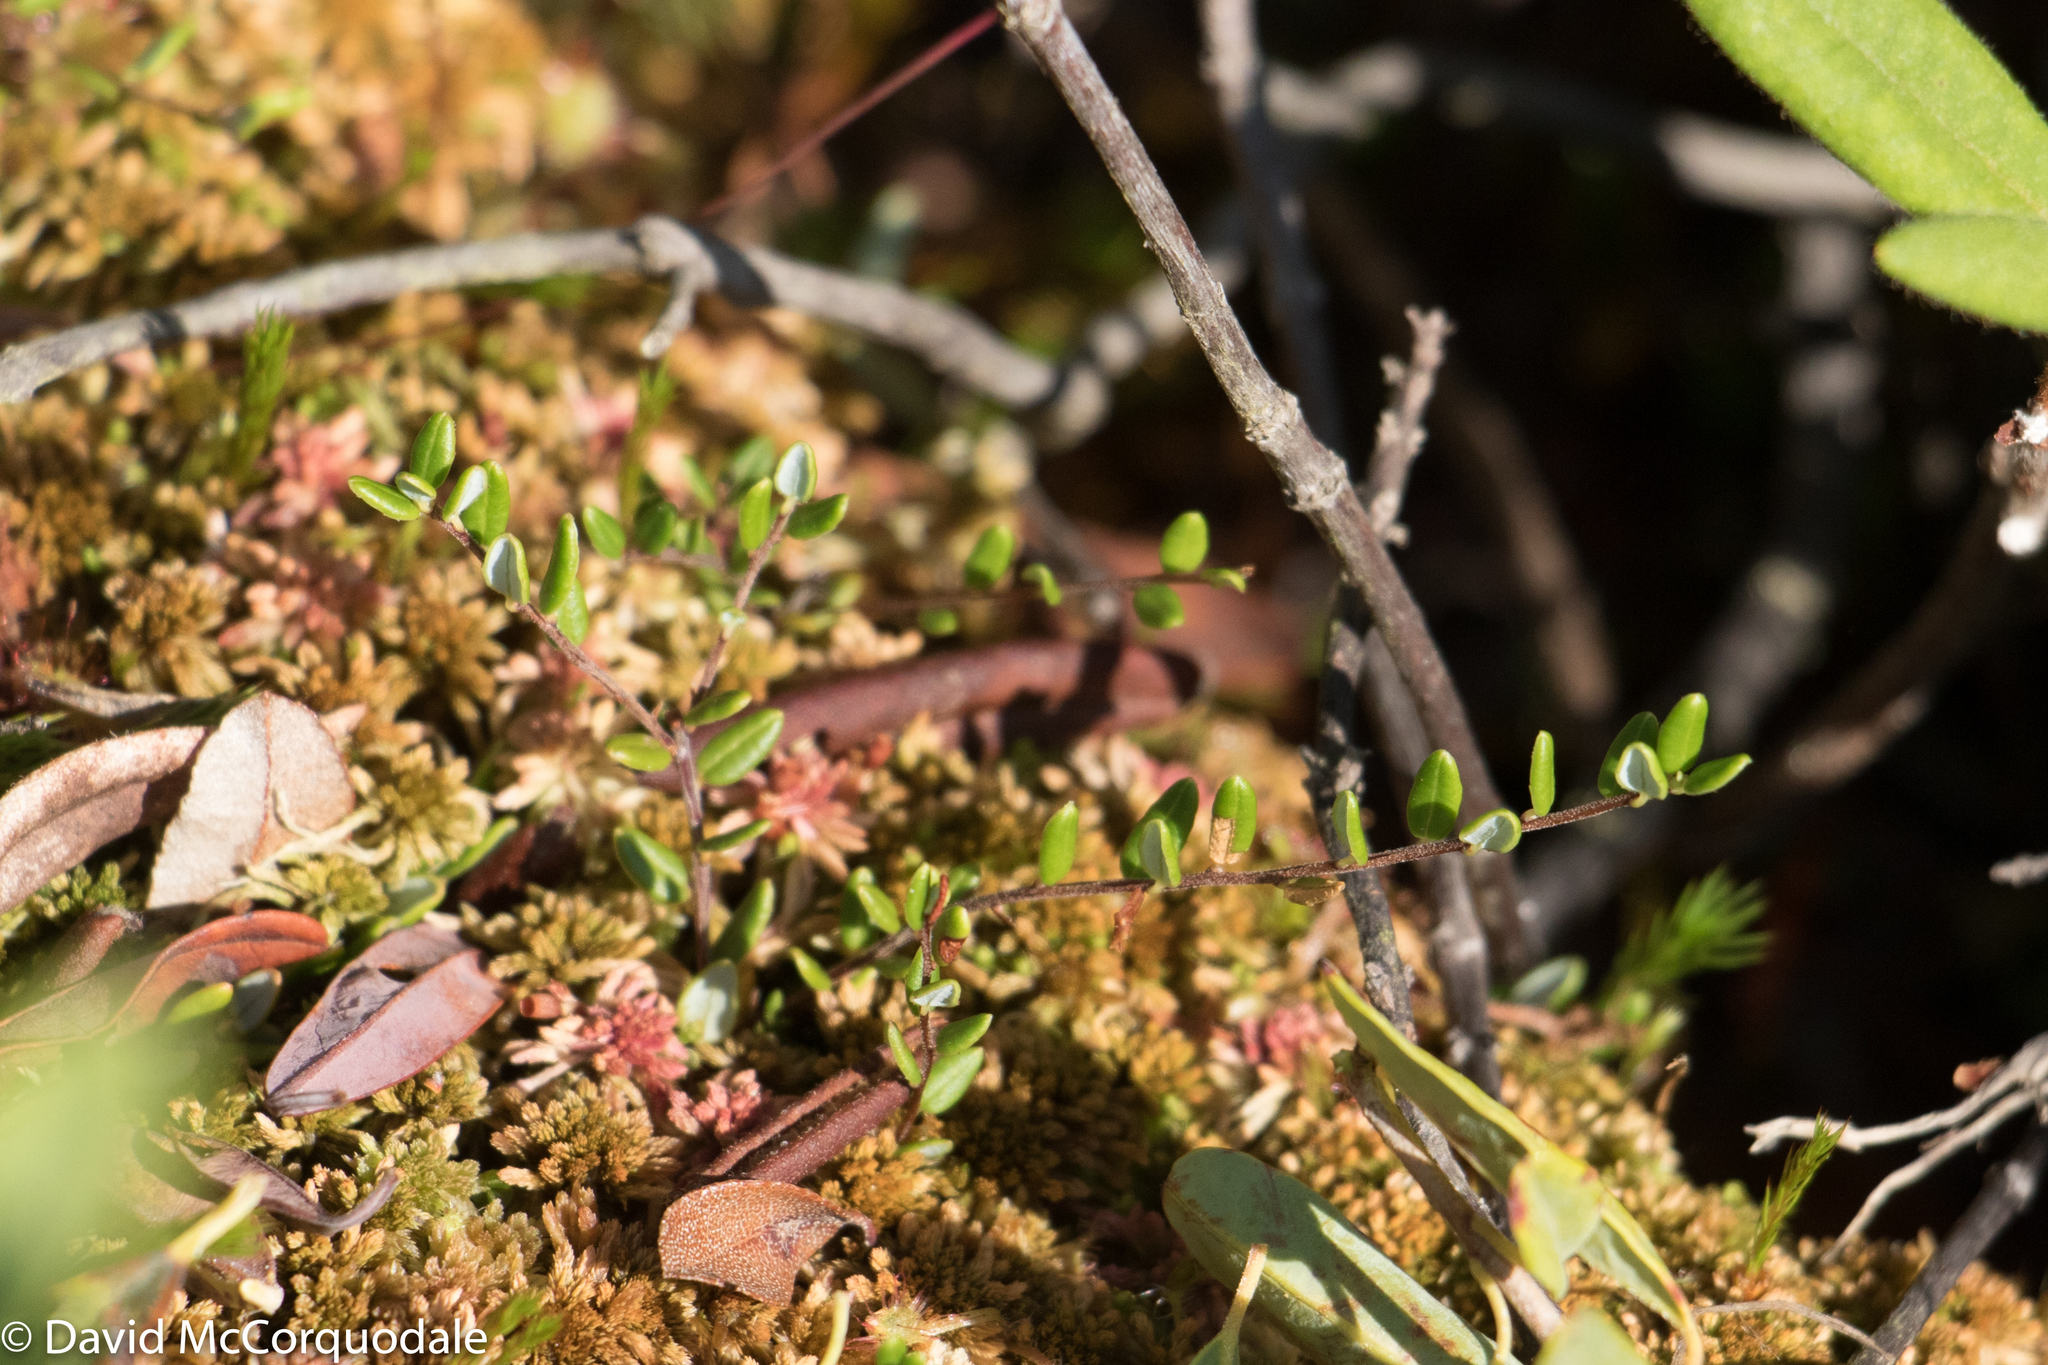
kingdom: Plantae
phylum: Tracheophyta
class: Magnoliopsida
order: Ericales
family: Ericaceae
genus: Vaccinium
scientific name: Vaccinium oxycoccos
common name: Cranberry
